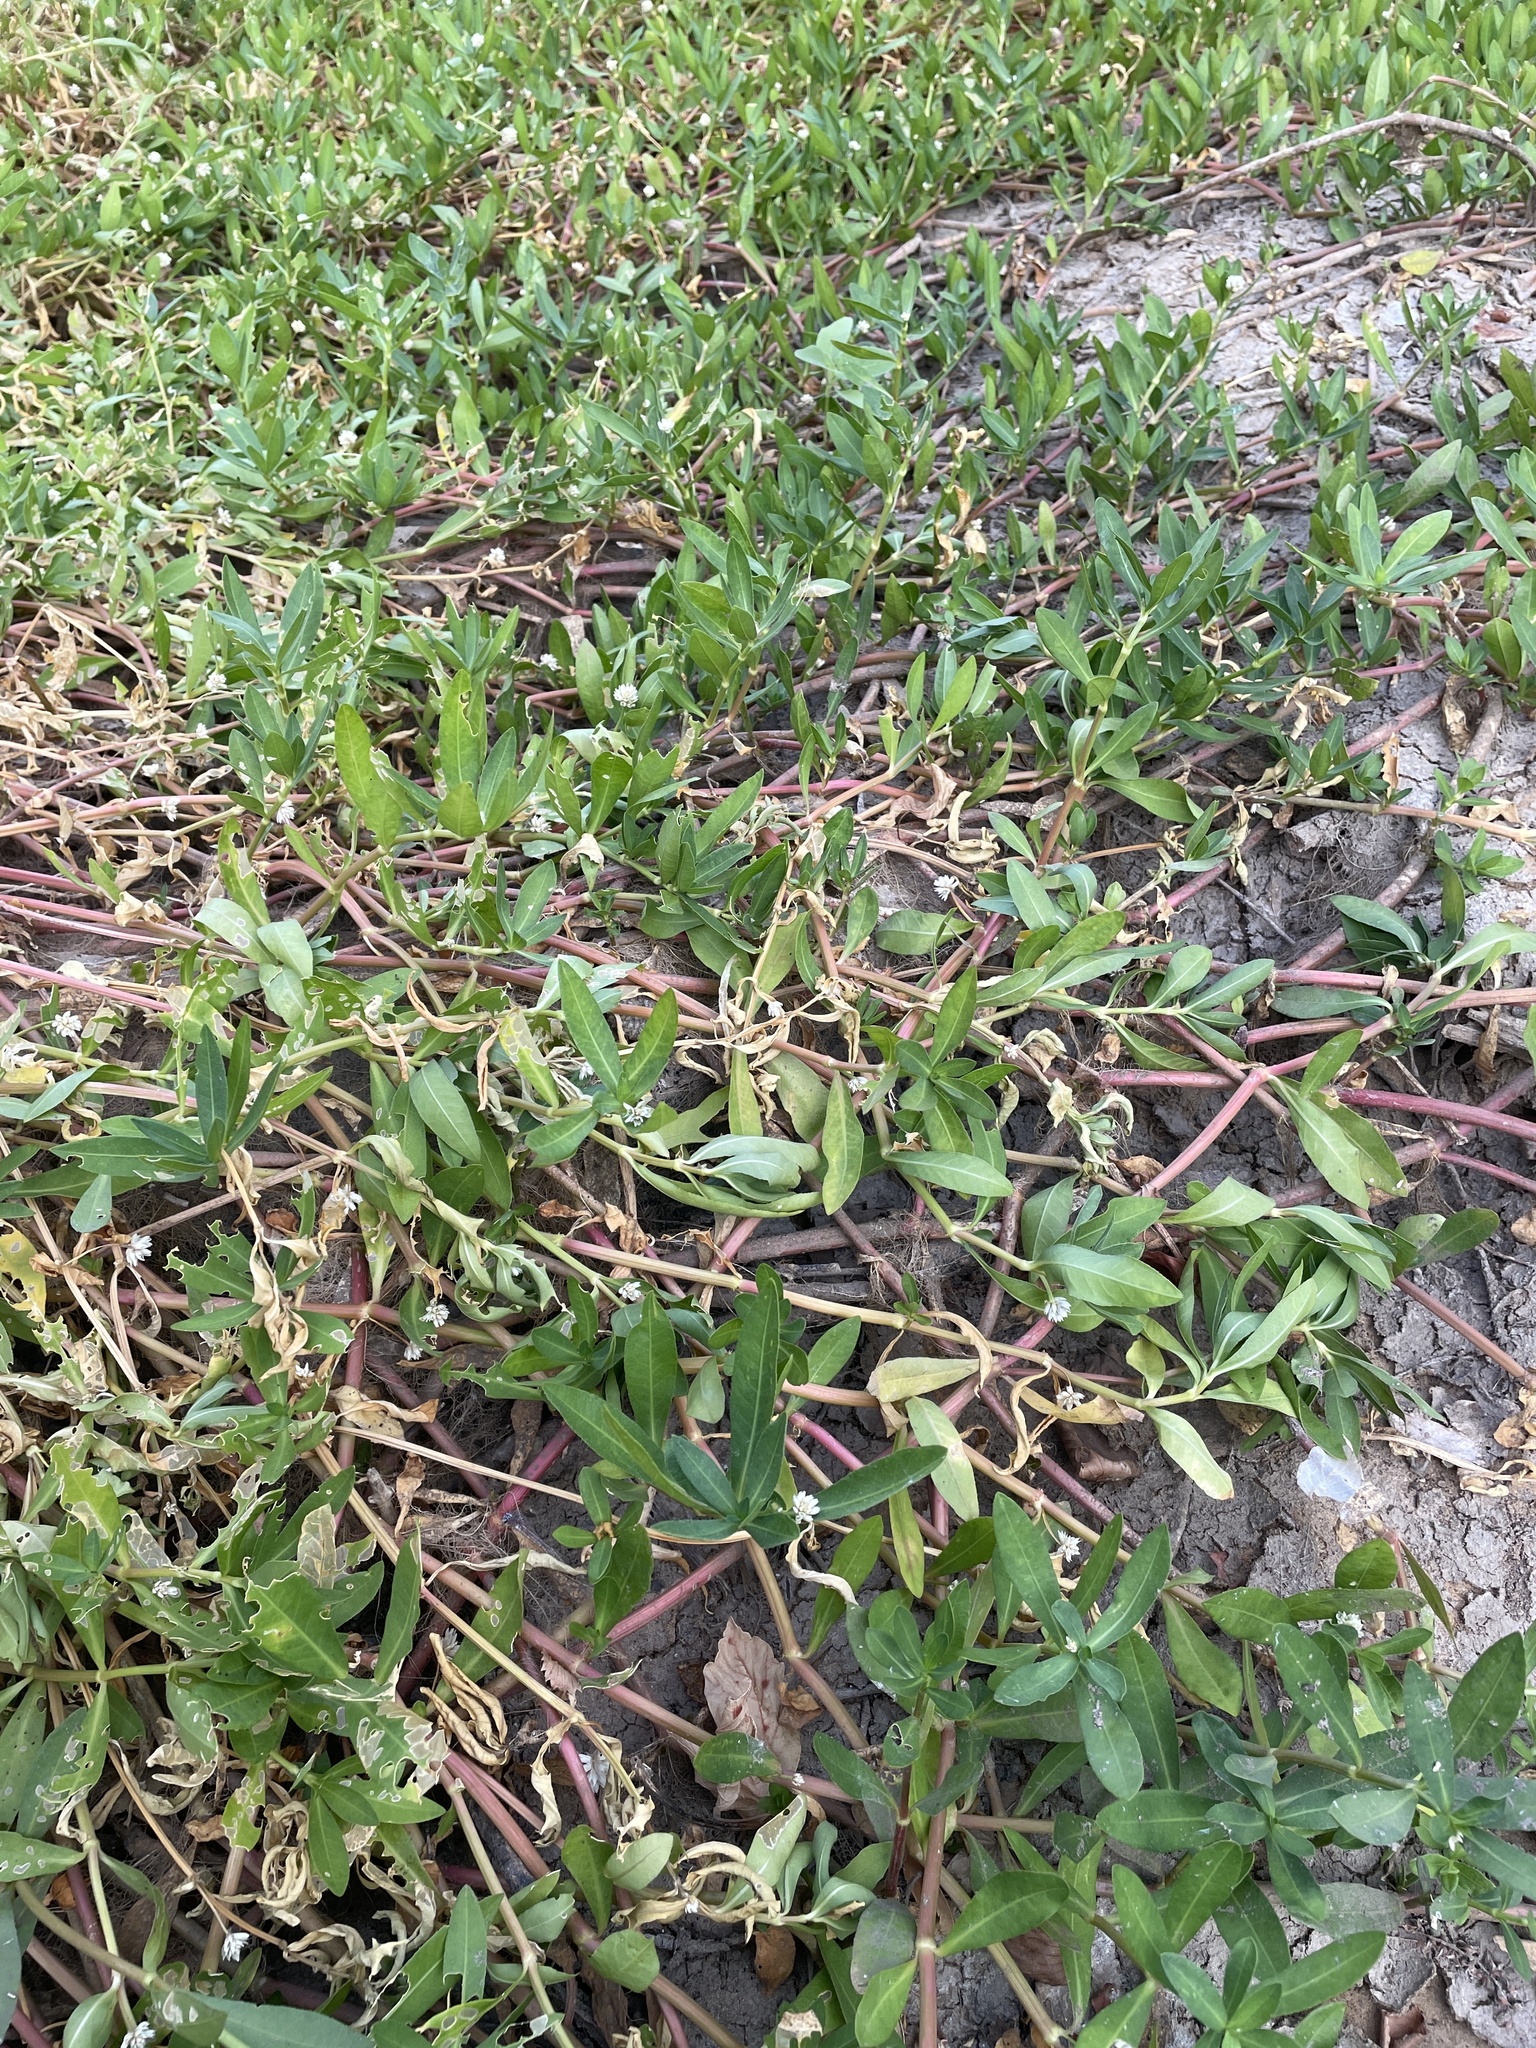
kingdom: Plantae
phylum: Tracheophyta
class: Magnoliopsida
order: Caryophyllales
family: Amaranthaceae
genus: Alternanthera
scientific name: Alternanthera philoxeroides
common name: Alligatorweed
